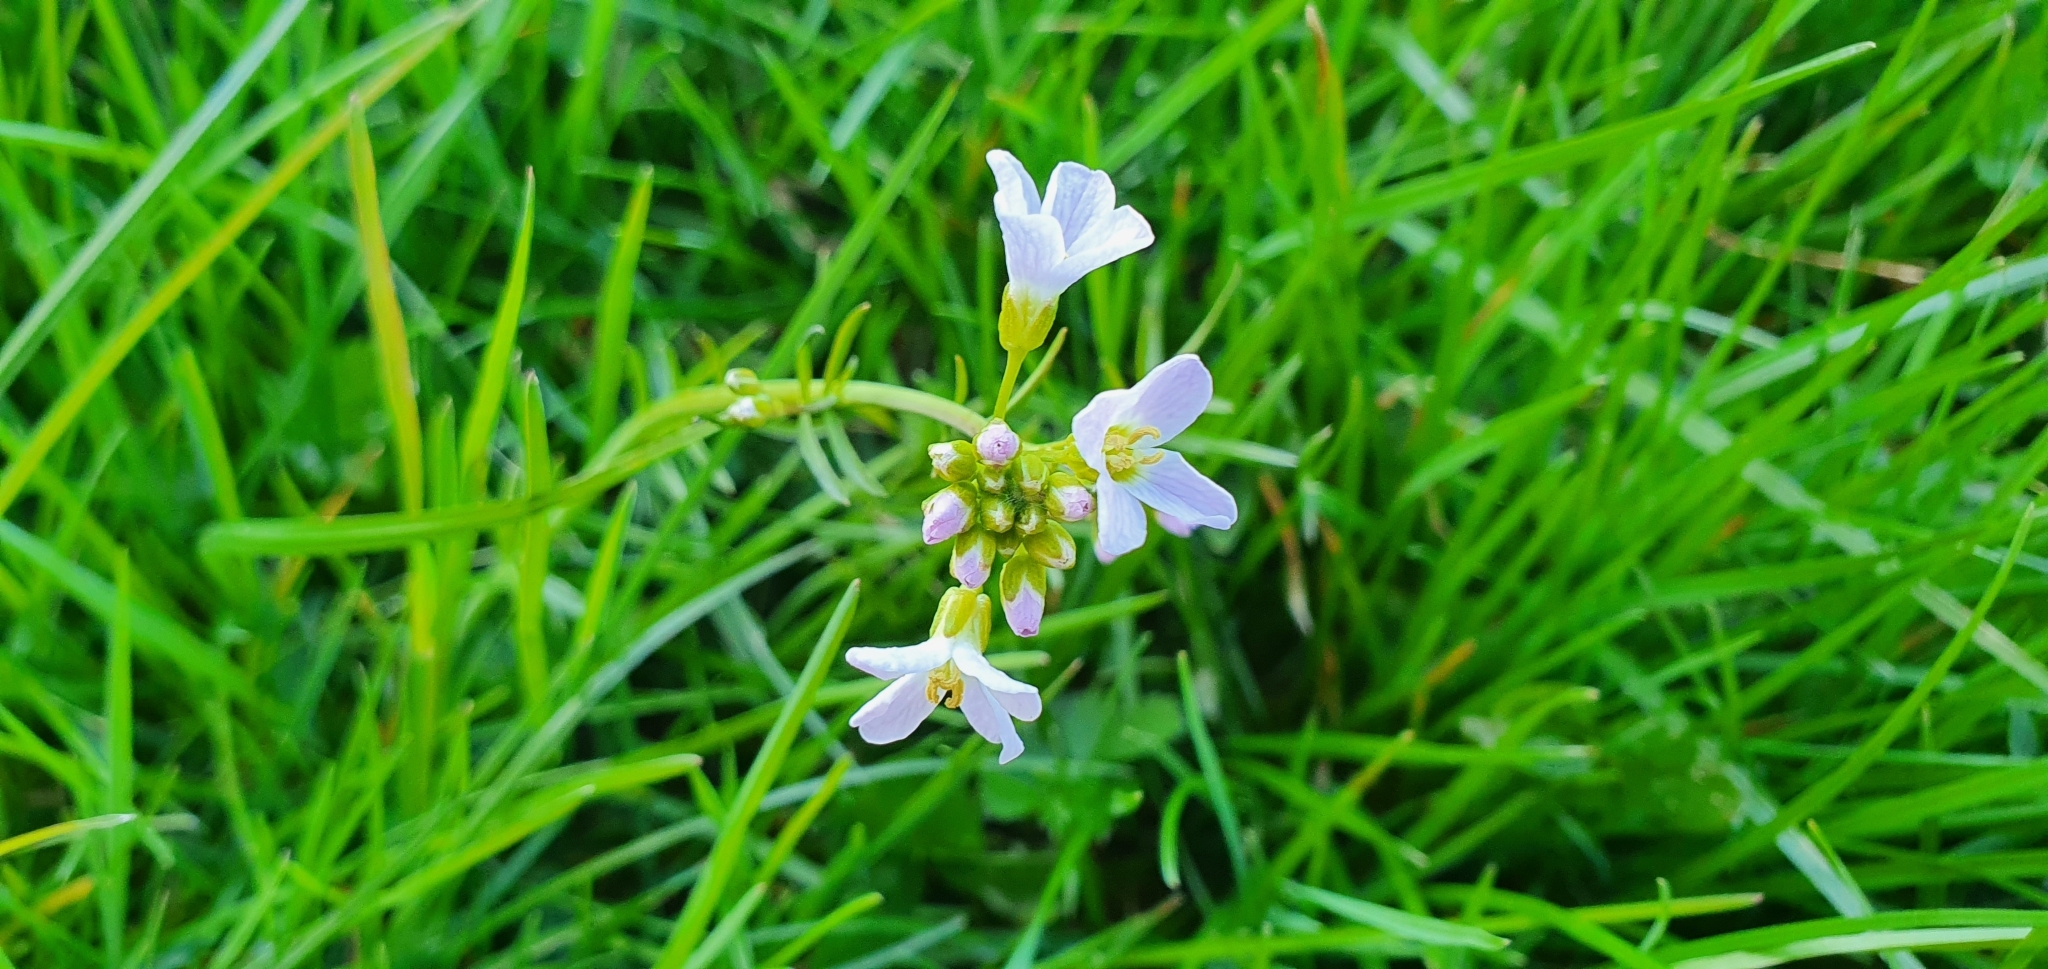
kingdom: Plantae
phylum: Tracheophyta
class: Magnoliopsida
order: Brassicales
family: Brassicaceae
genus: Cardamine
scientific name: Cardamine pratensis
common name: Cuckoo flower
